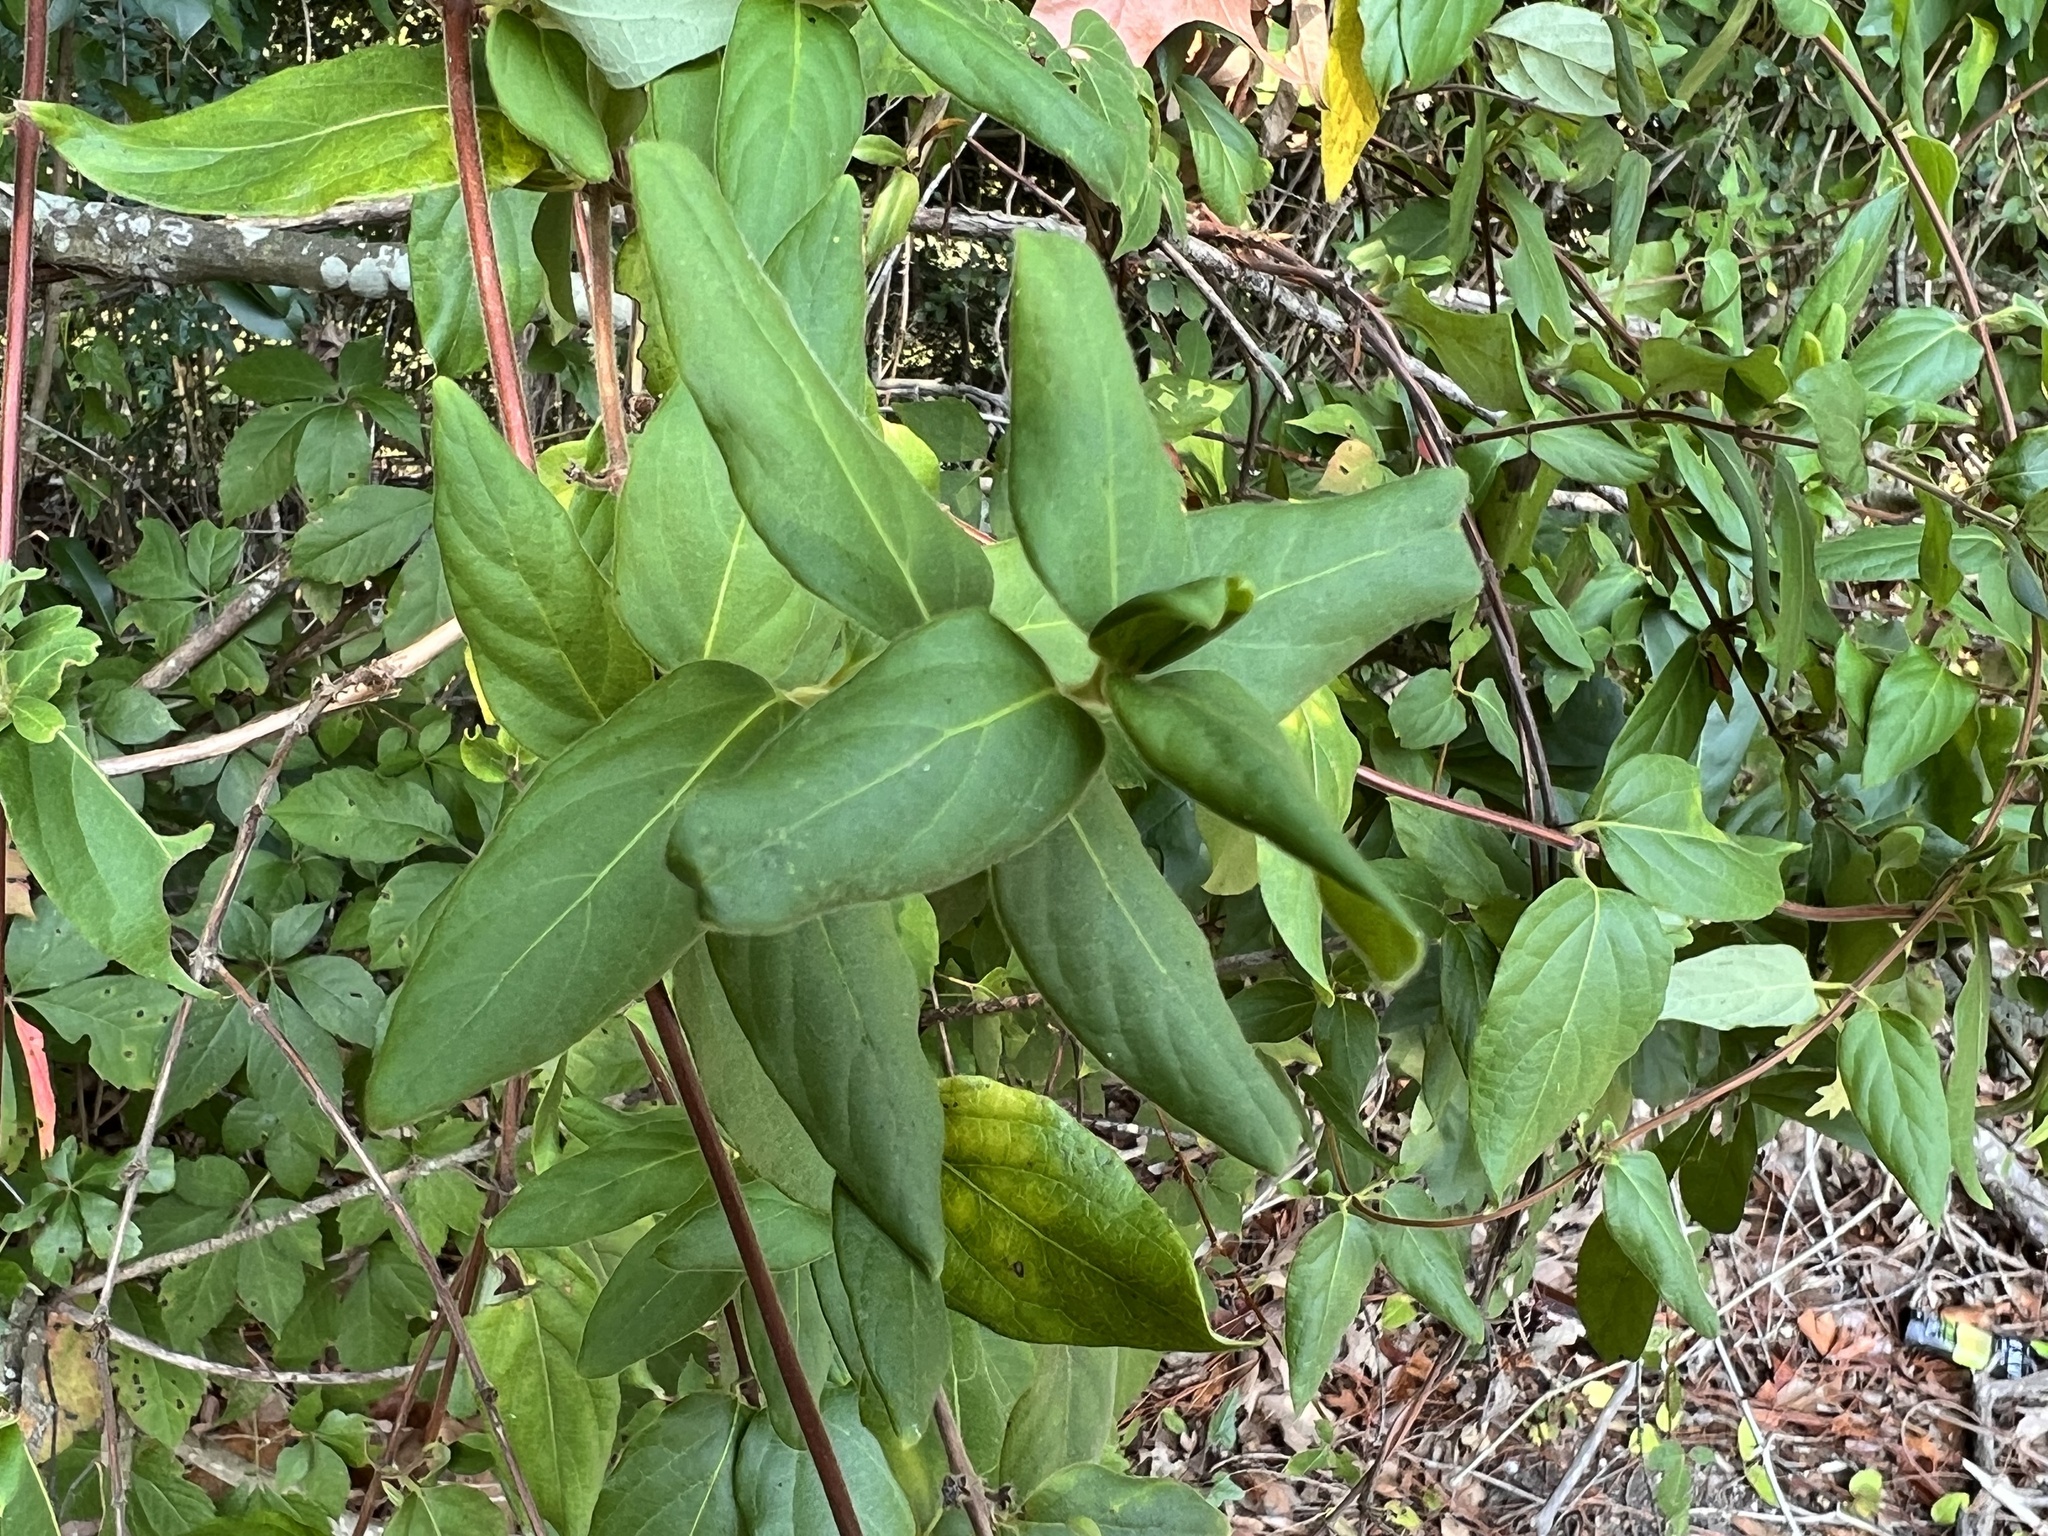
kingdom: Plantae
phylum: Tracheophyta
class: Magnoliopsida
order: Dipsacales
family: Caprifoliaceae
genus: Lonicera
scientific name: Lonicera japonica
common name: Japanese honeysuckle
